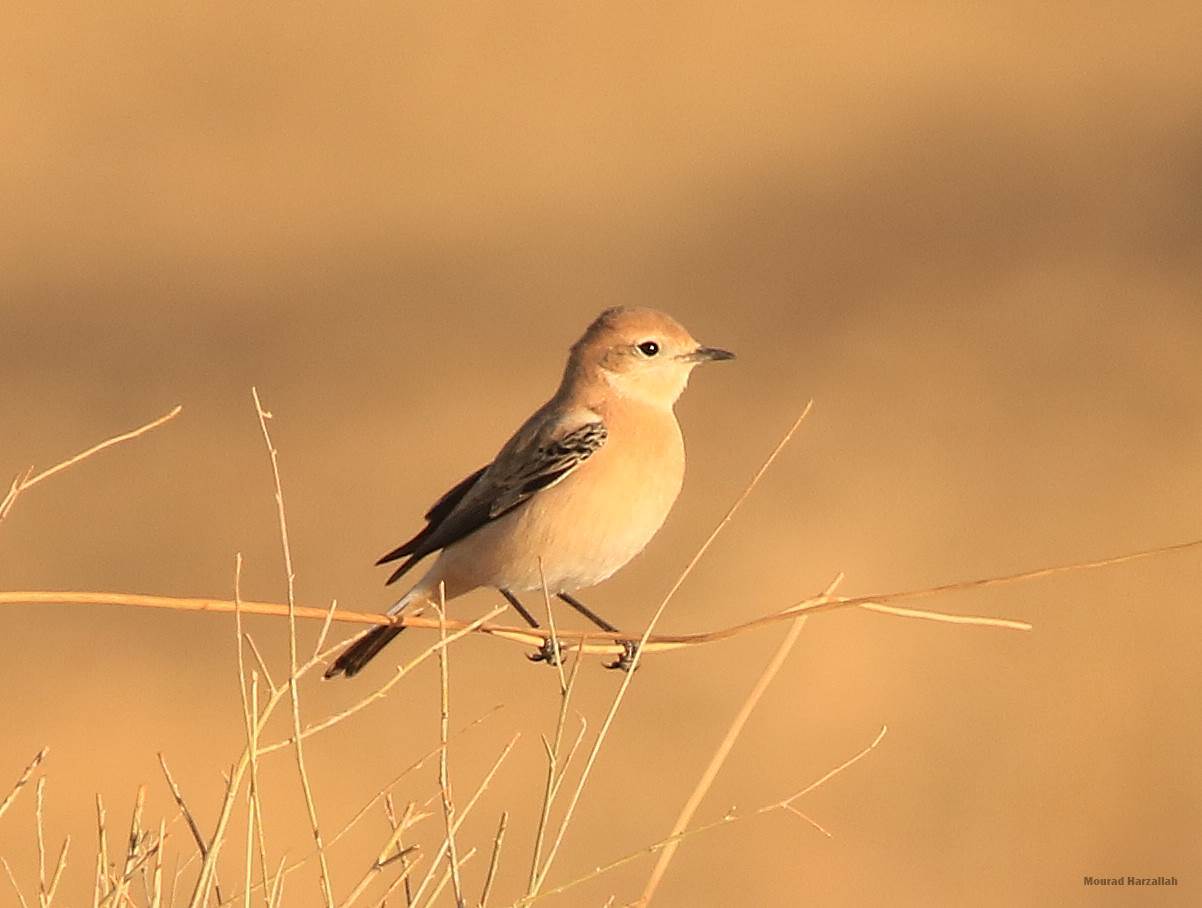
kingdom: Animalia
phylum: Chordata
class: Aves
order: Passeriformes
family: Muscicapidae
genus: Oenanthe
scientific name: Oenanthe hispanica
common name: Black-eared wheatear
